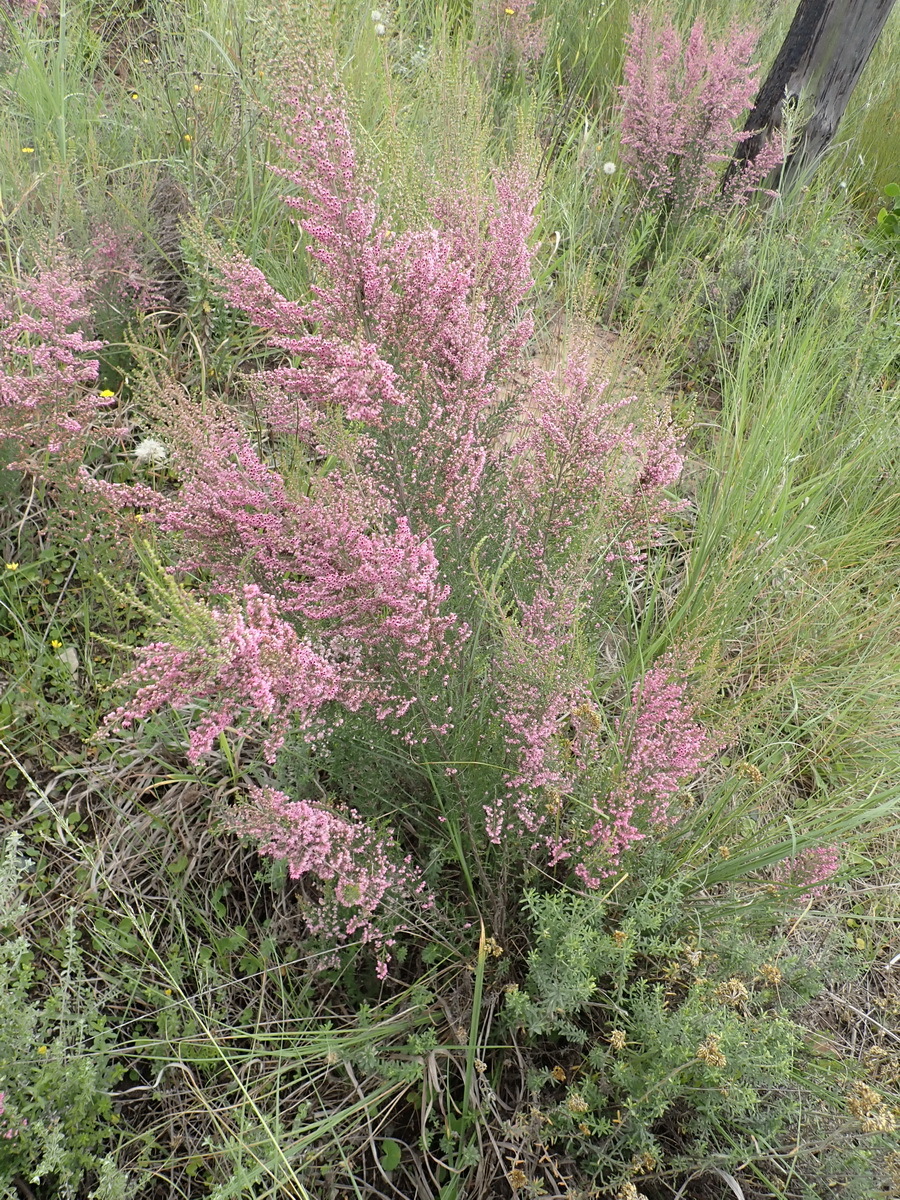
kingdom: Plantae
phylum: Tracheophyta
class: Magnoliopsida
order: Ericales
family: Ericaceae
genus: Erica
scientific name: Erica sparsa
